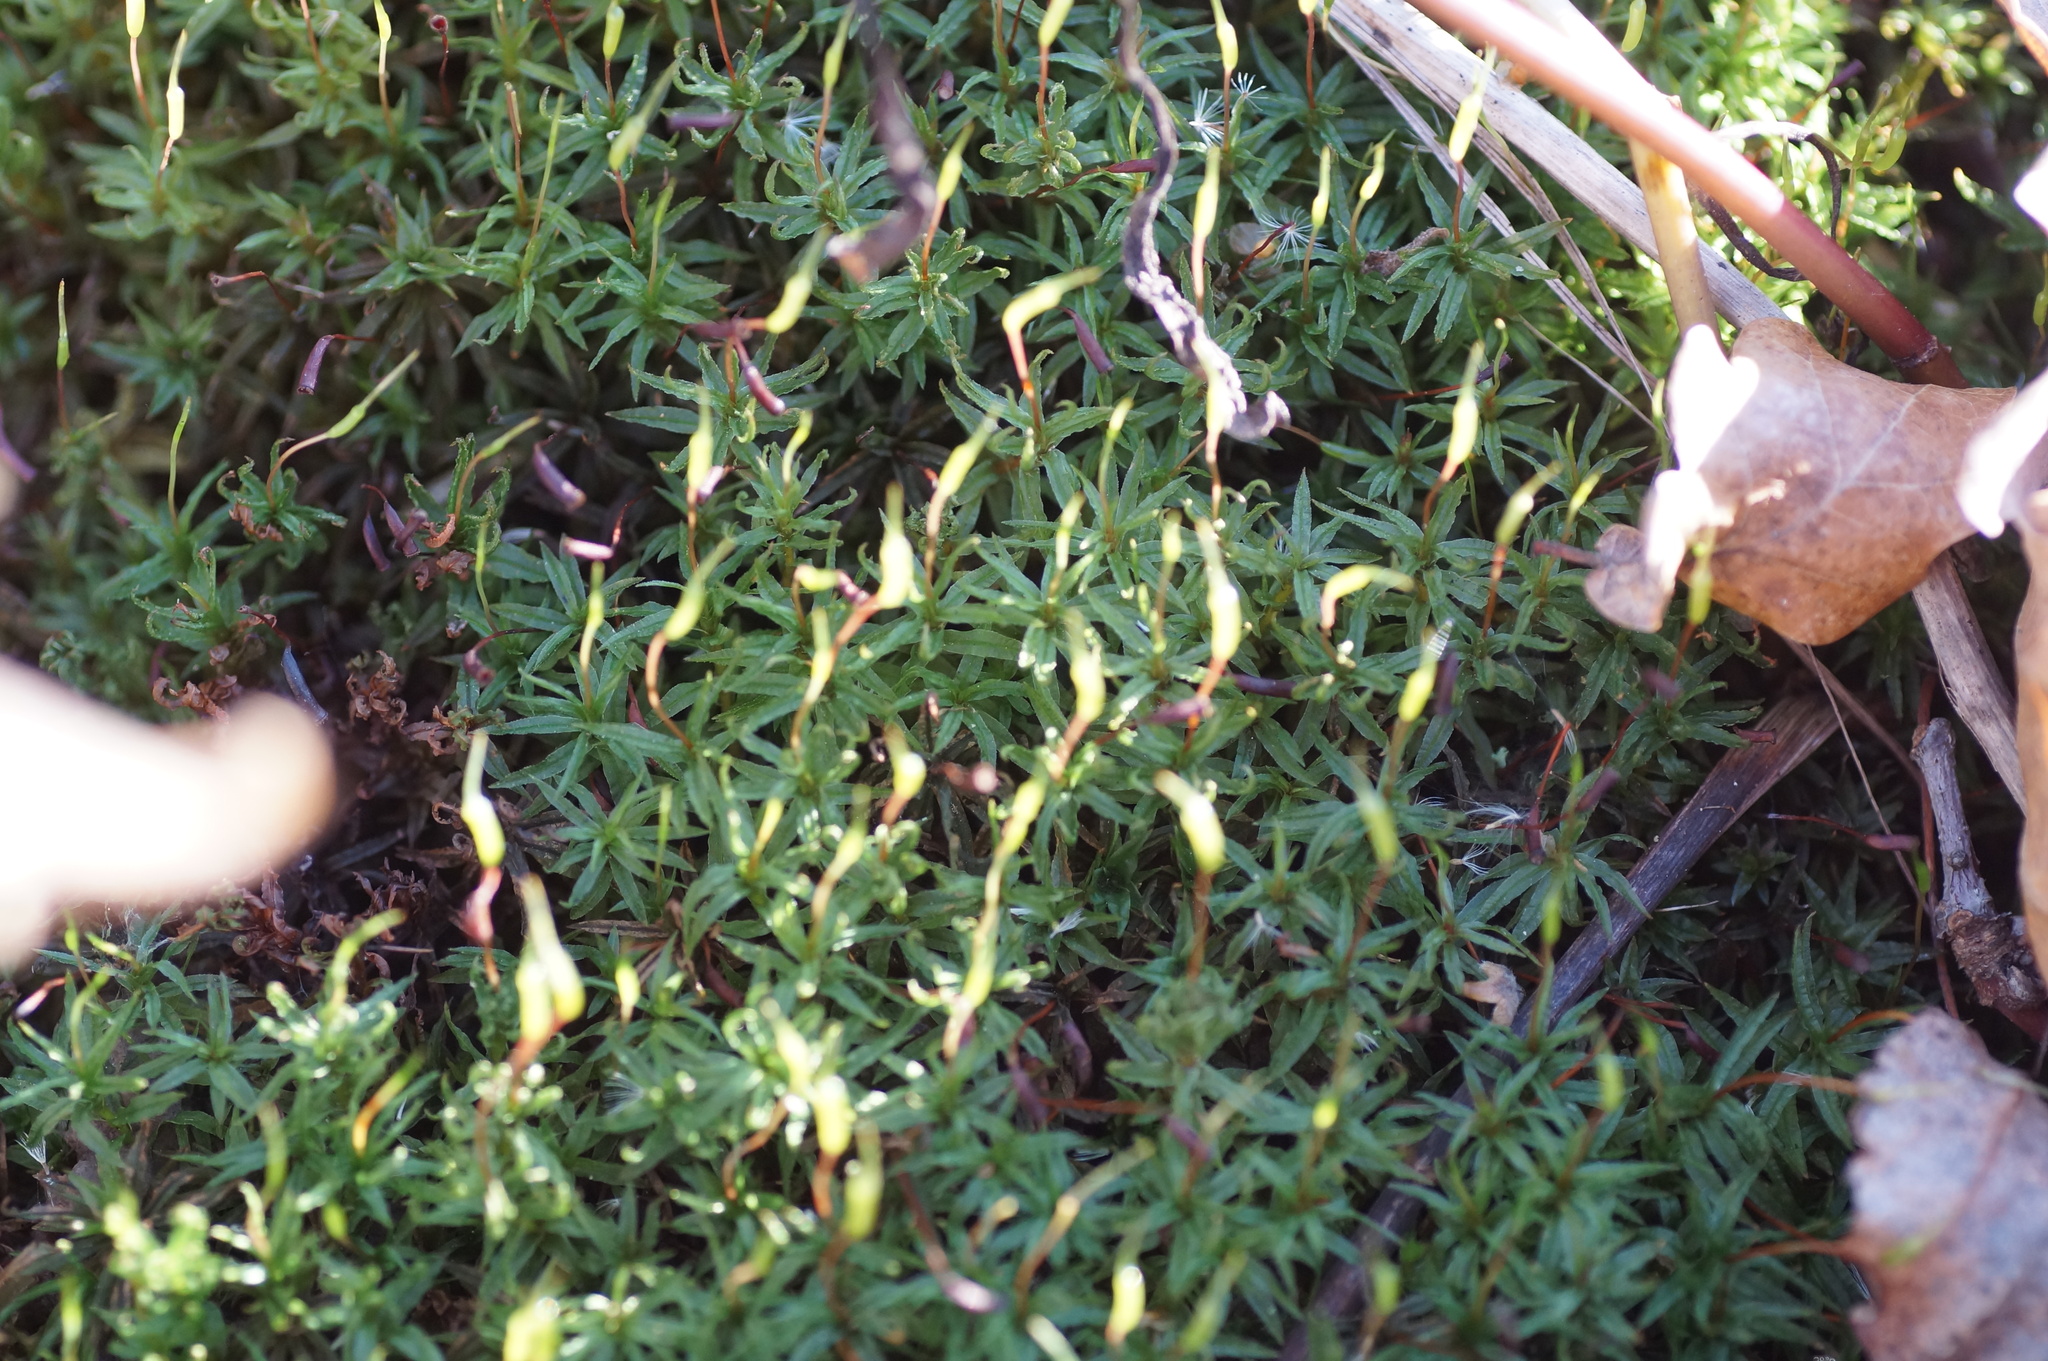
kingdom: Plantae
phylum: Bryophyta
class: Polytrichopsida
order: Polytrichales
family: Polytrichaceae
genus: Atrichum
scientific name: Atrichum undulatum
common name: Common smoothcap
